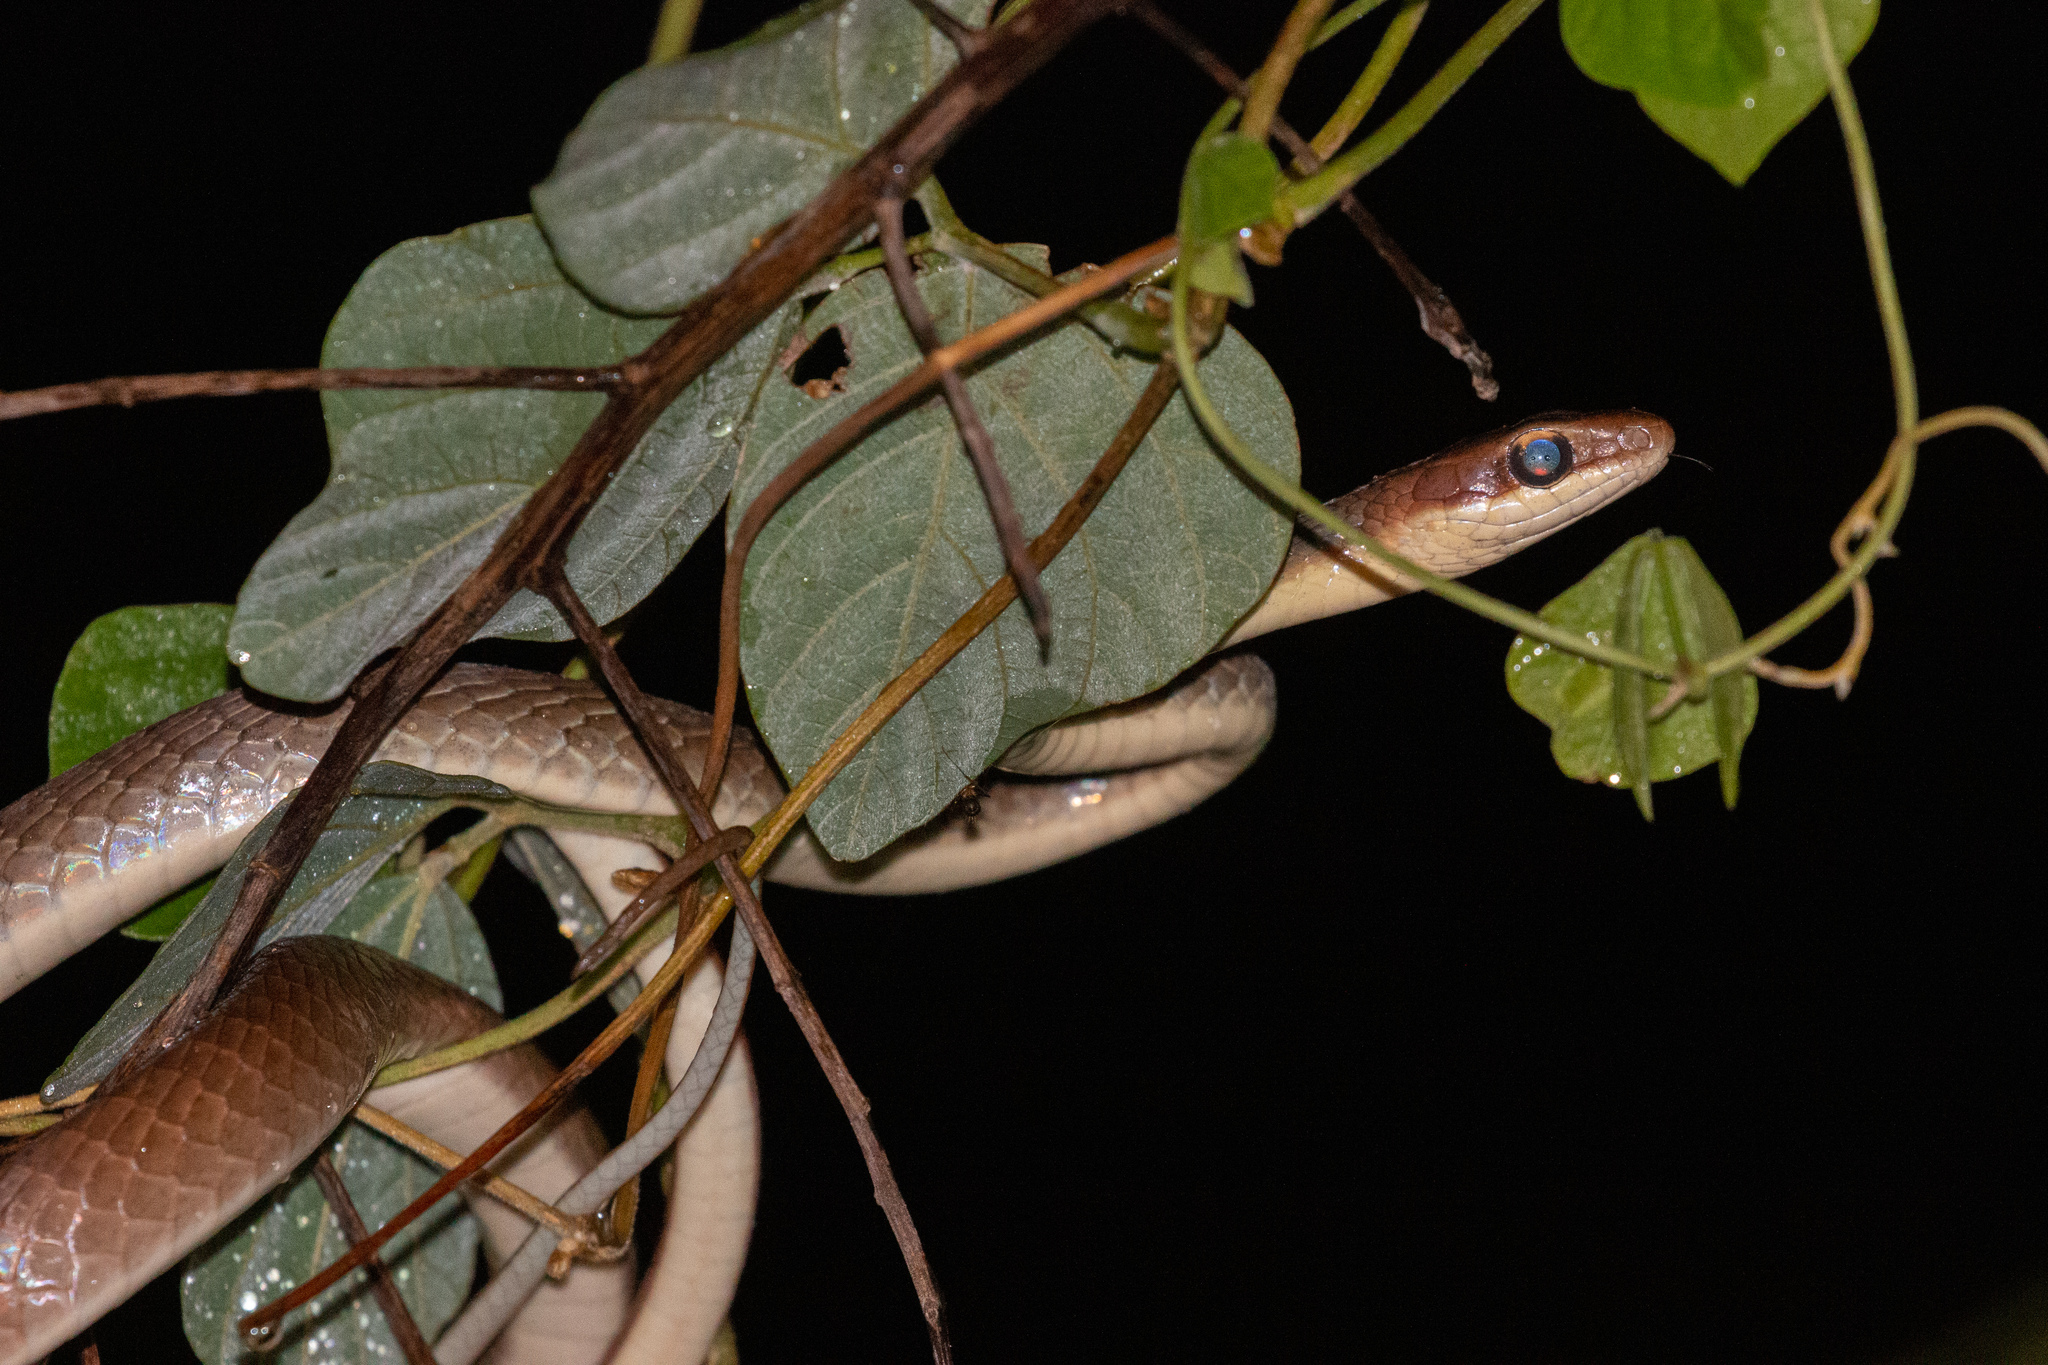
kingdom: Animalia
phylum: Chordata
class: Squamata
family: Colubridae
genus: Chironius
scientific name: Chironius flavolineatus
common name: Boettger's sipo
